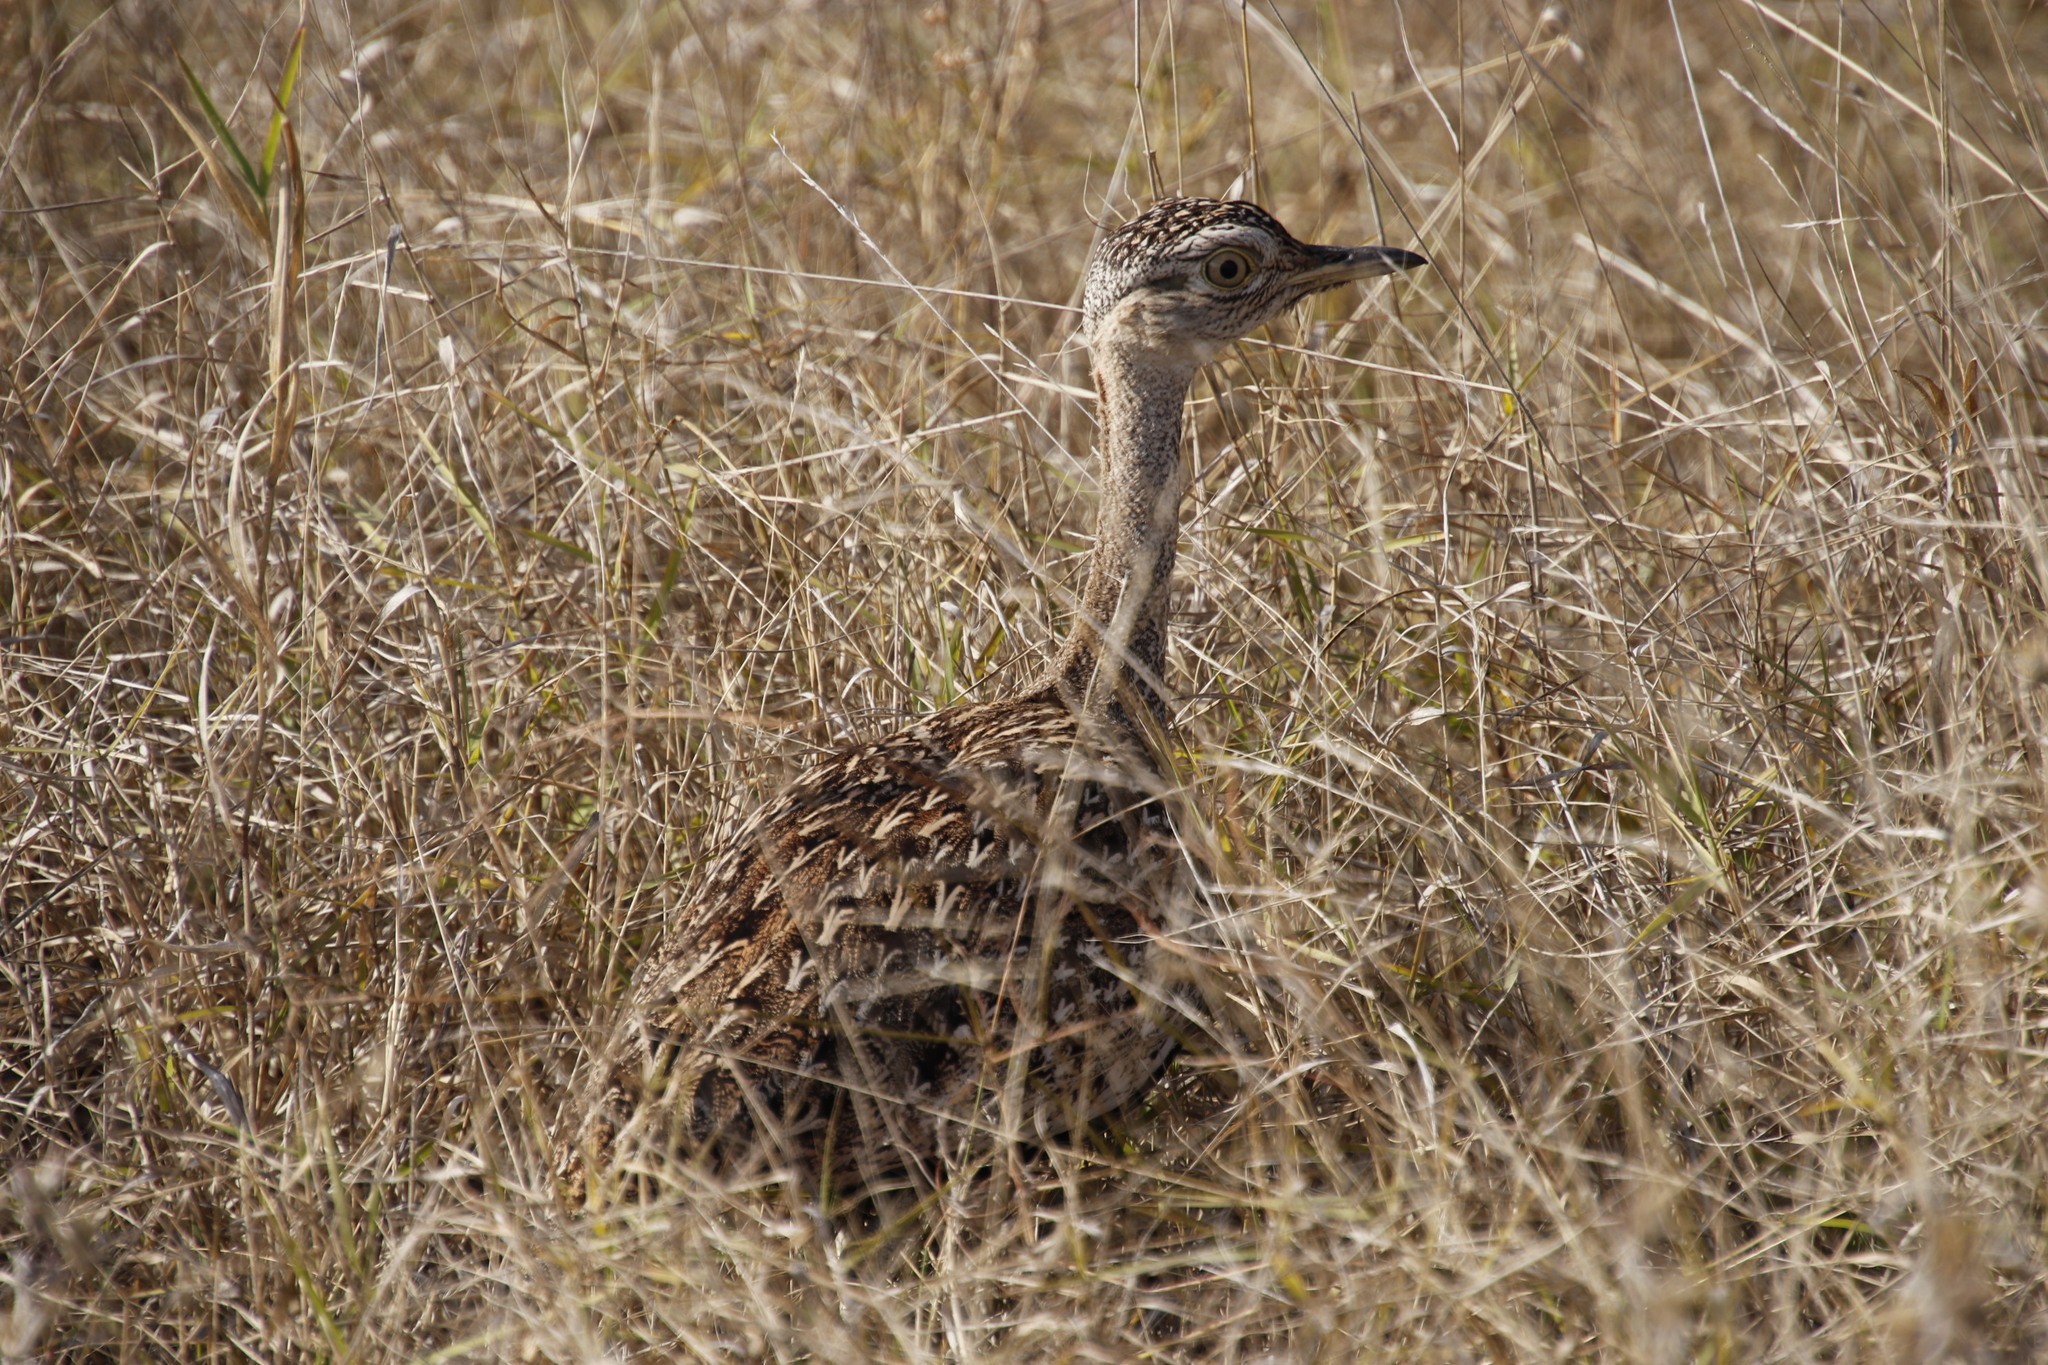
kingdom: Animalia
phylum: Chordata
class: Aves
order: Otidiformes
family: Otididae
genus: Lophotis
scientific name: Lophotis ruficrista
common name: Red-crested korhaan
